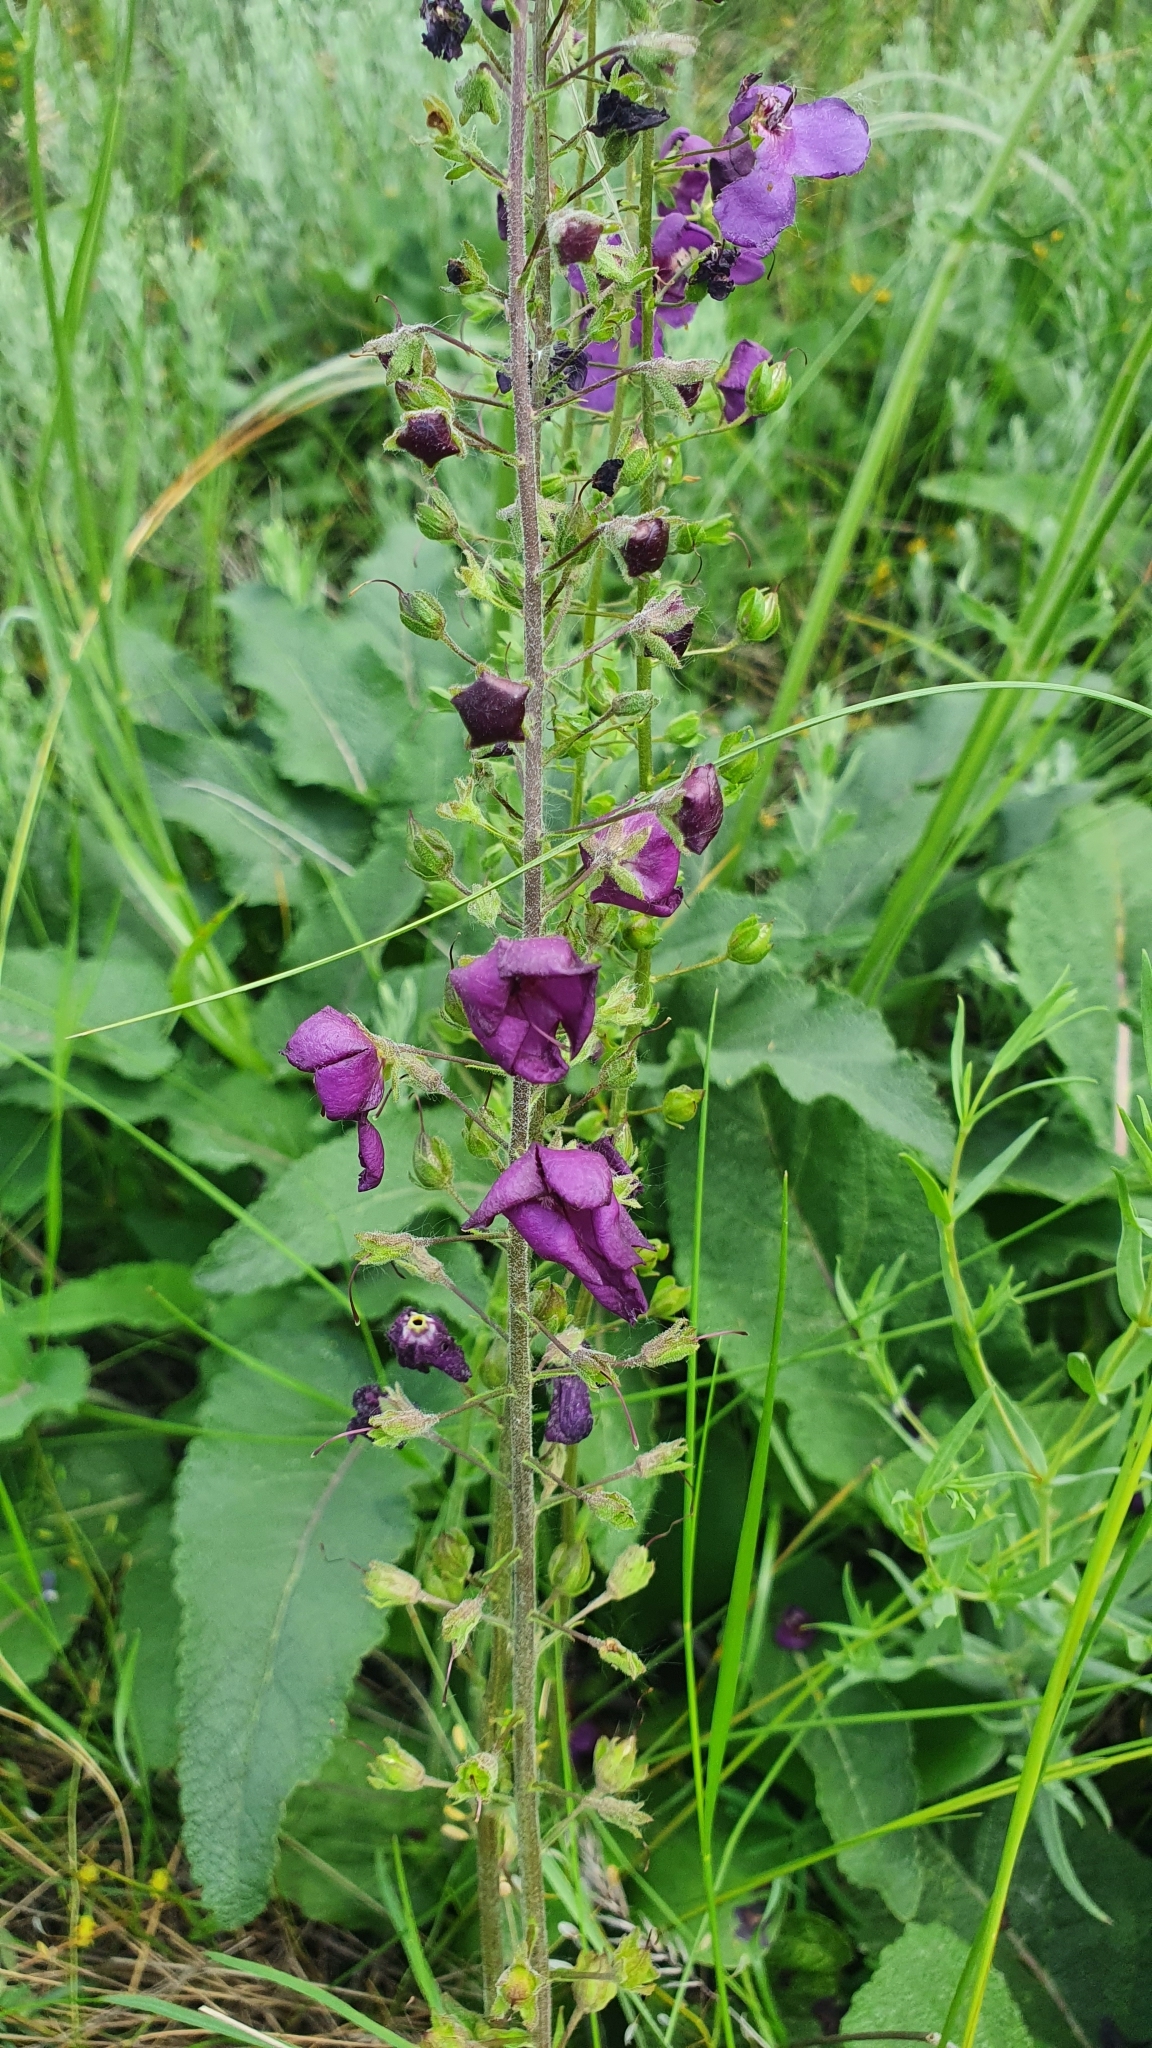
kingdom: Plantae
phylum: Tracheophyta
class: Magnoliopsida
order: Lamiales
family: Scrophulariaceae
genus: Verbascum
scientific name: Verbascum phoeniceum
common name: Purple mullein
